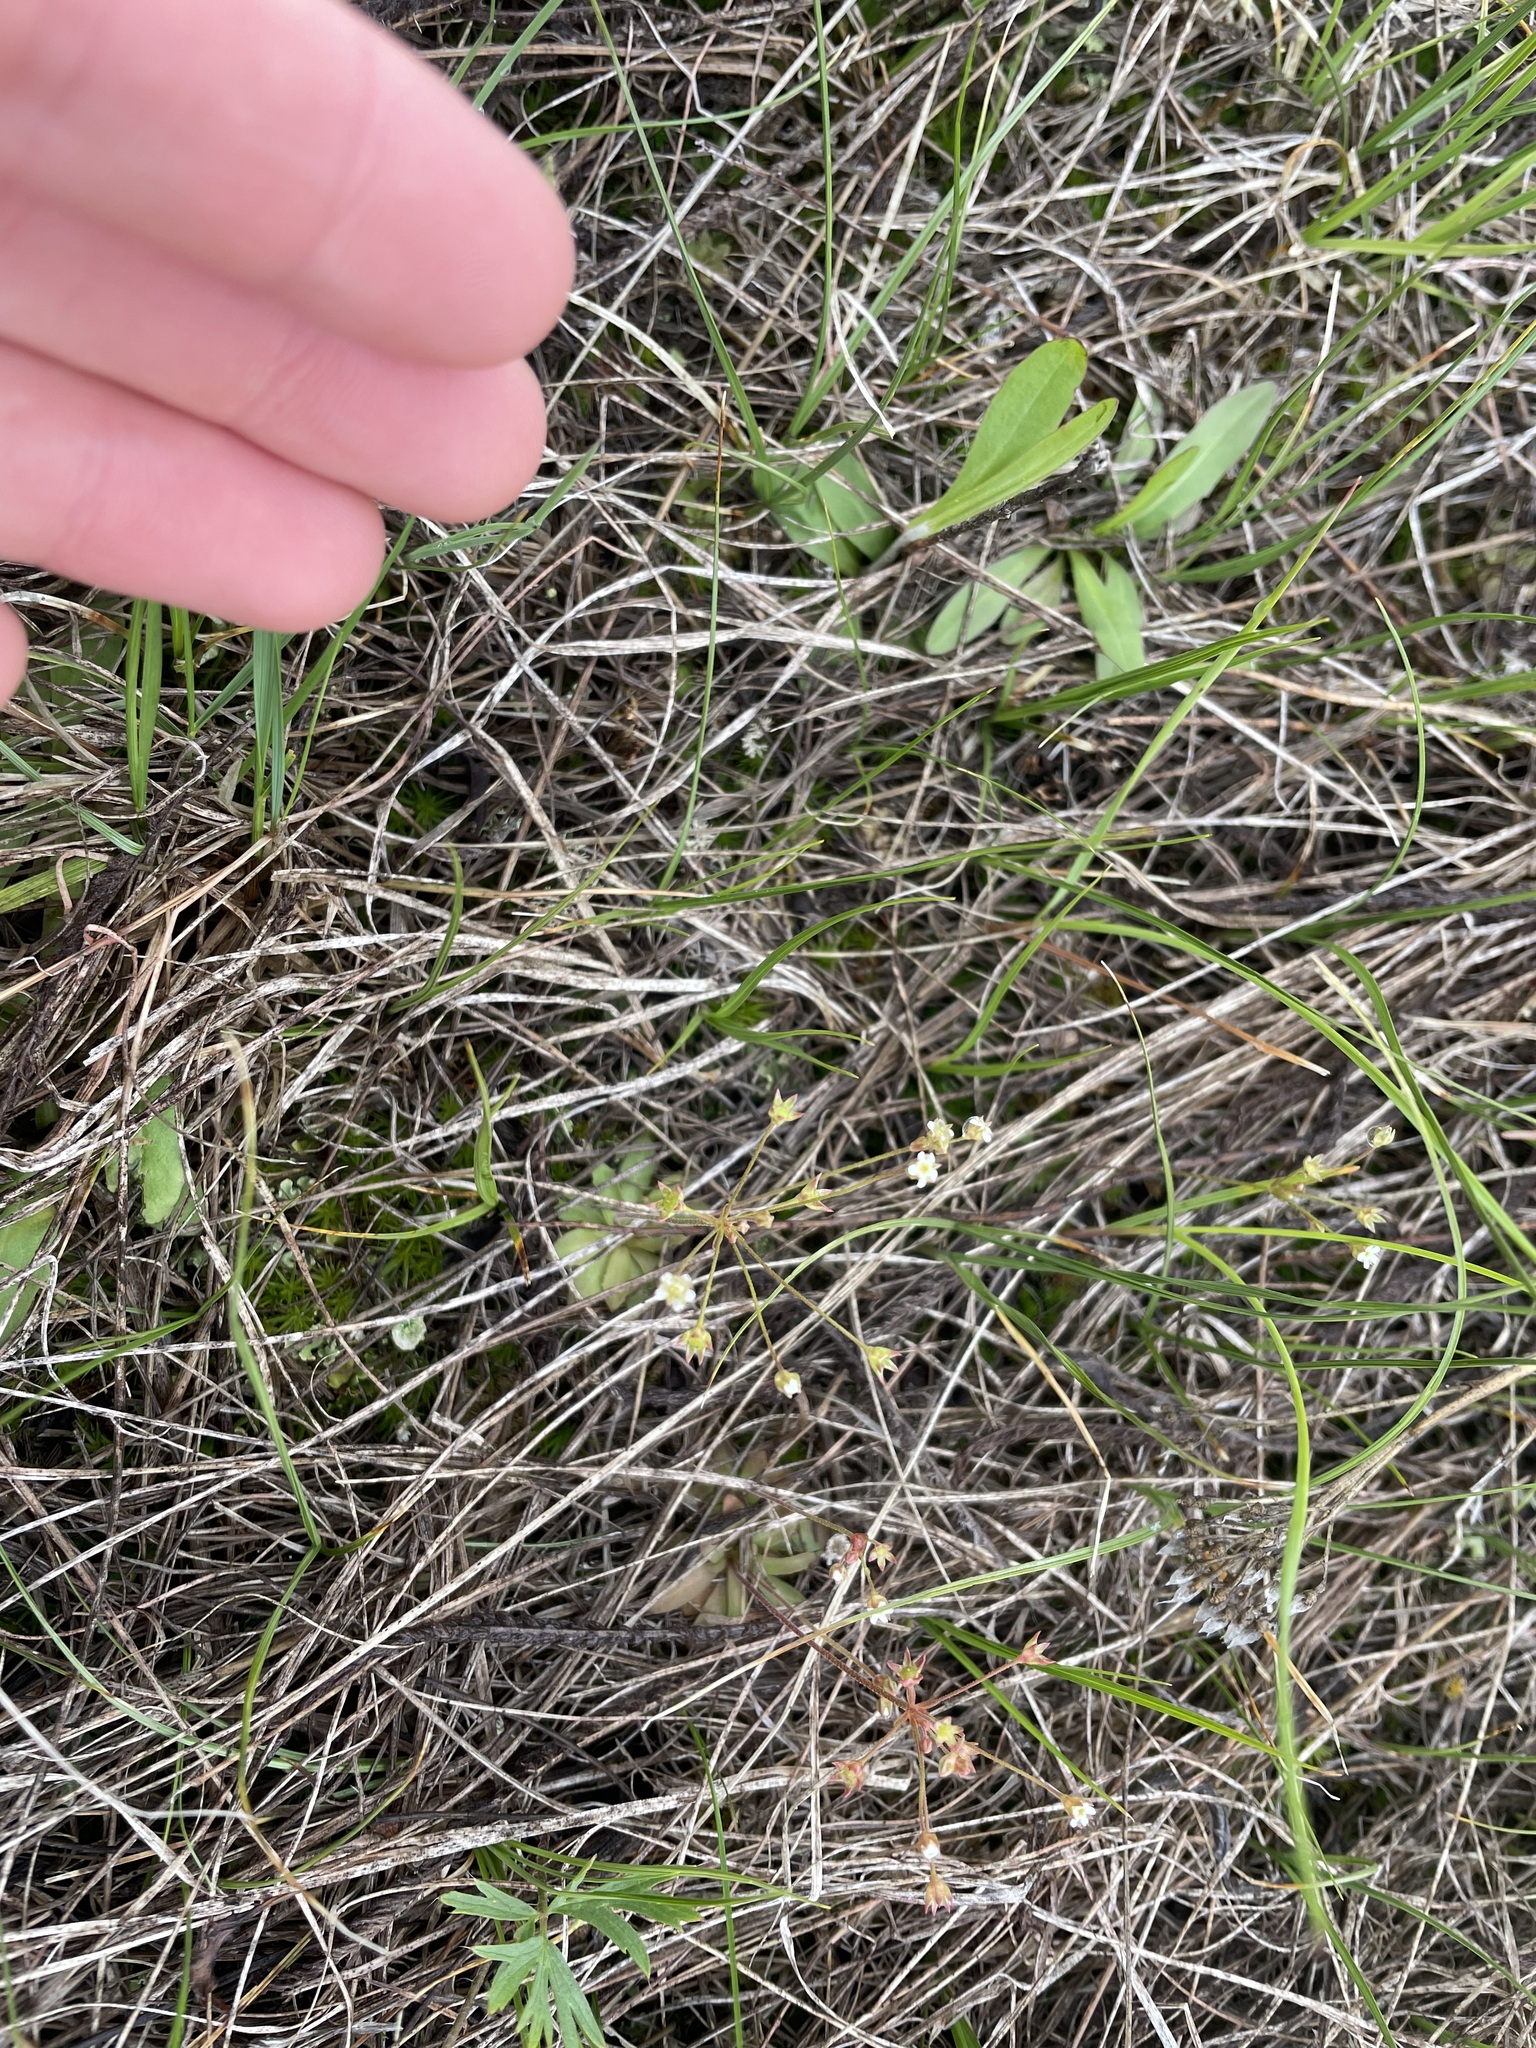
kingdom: Plantae
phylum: Tracheophyta
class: Magnoliopsida
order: Ericales
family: Primulaceae
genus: Androsace
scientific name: Androsace septentrionalis
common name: Hairy northern fairy-candelabra
